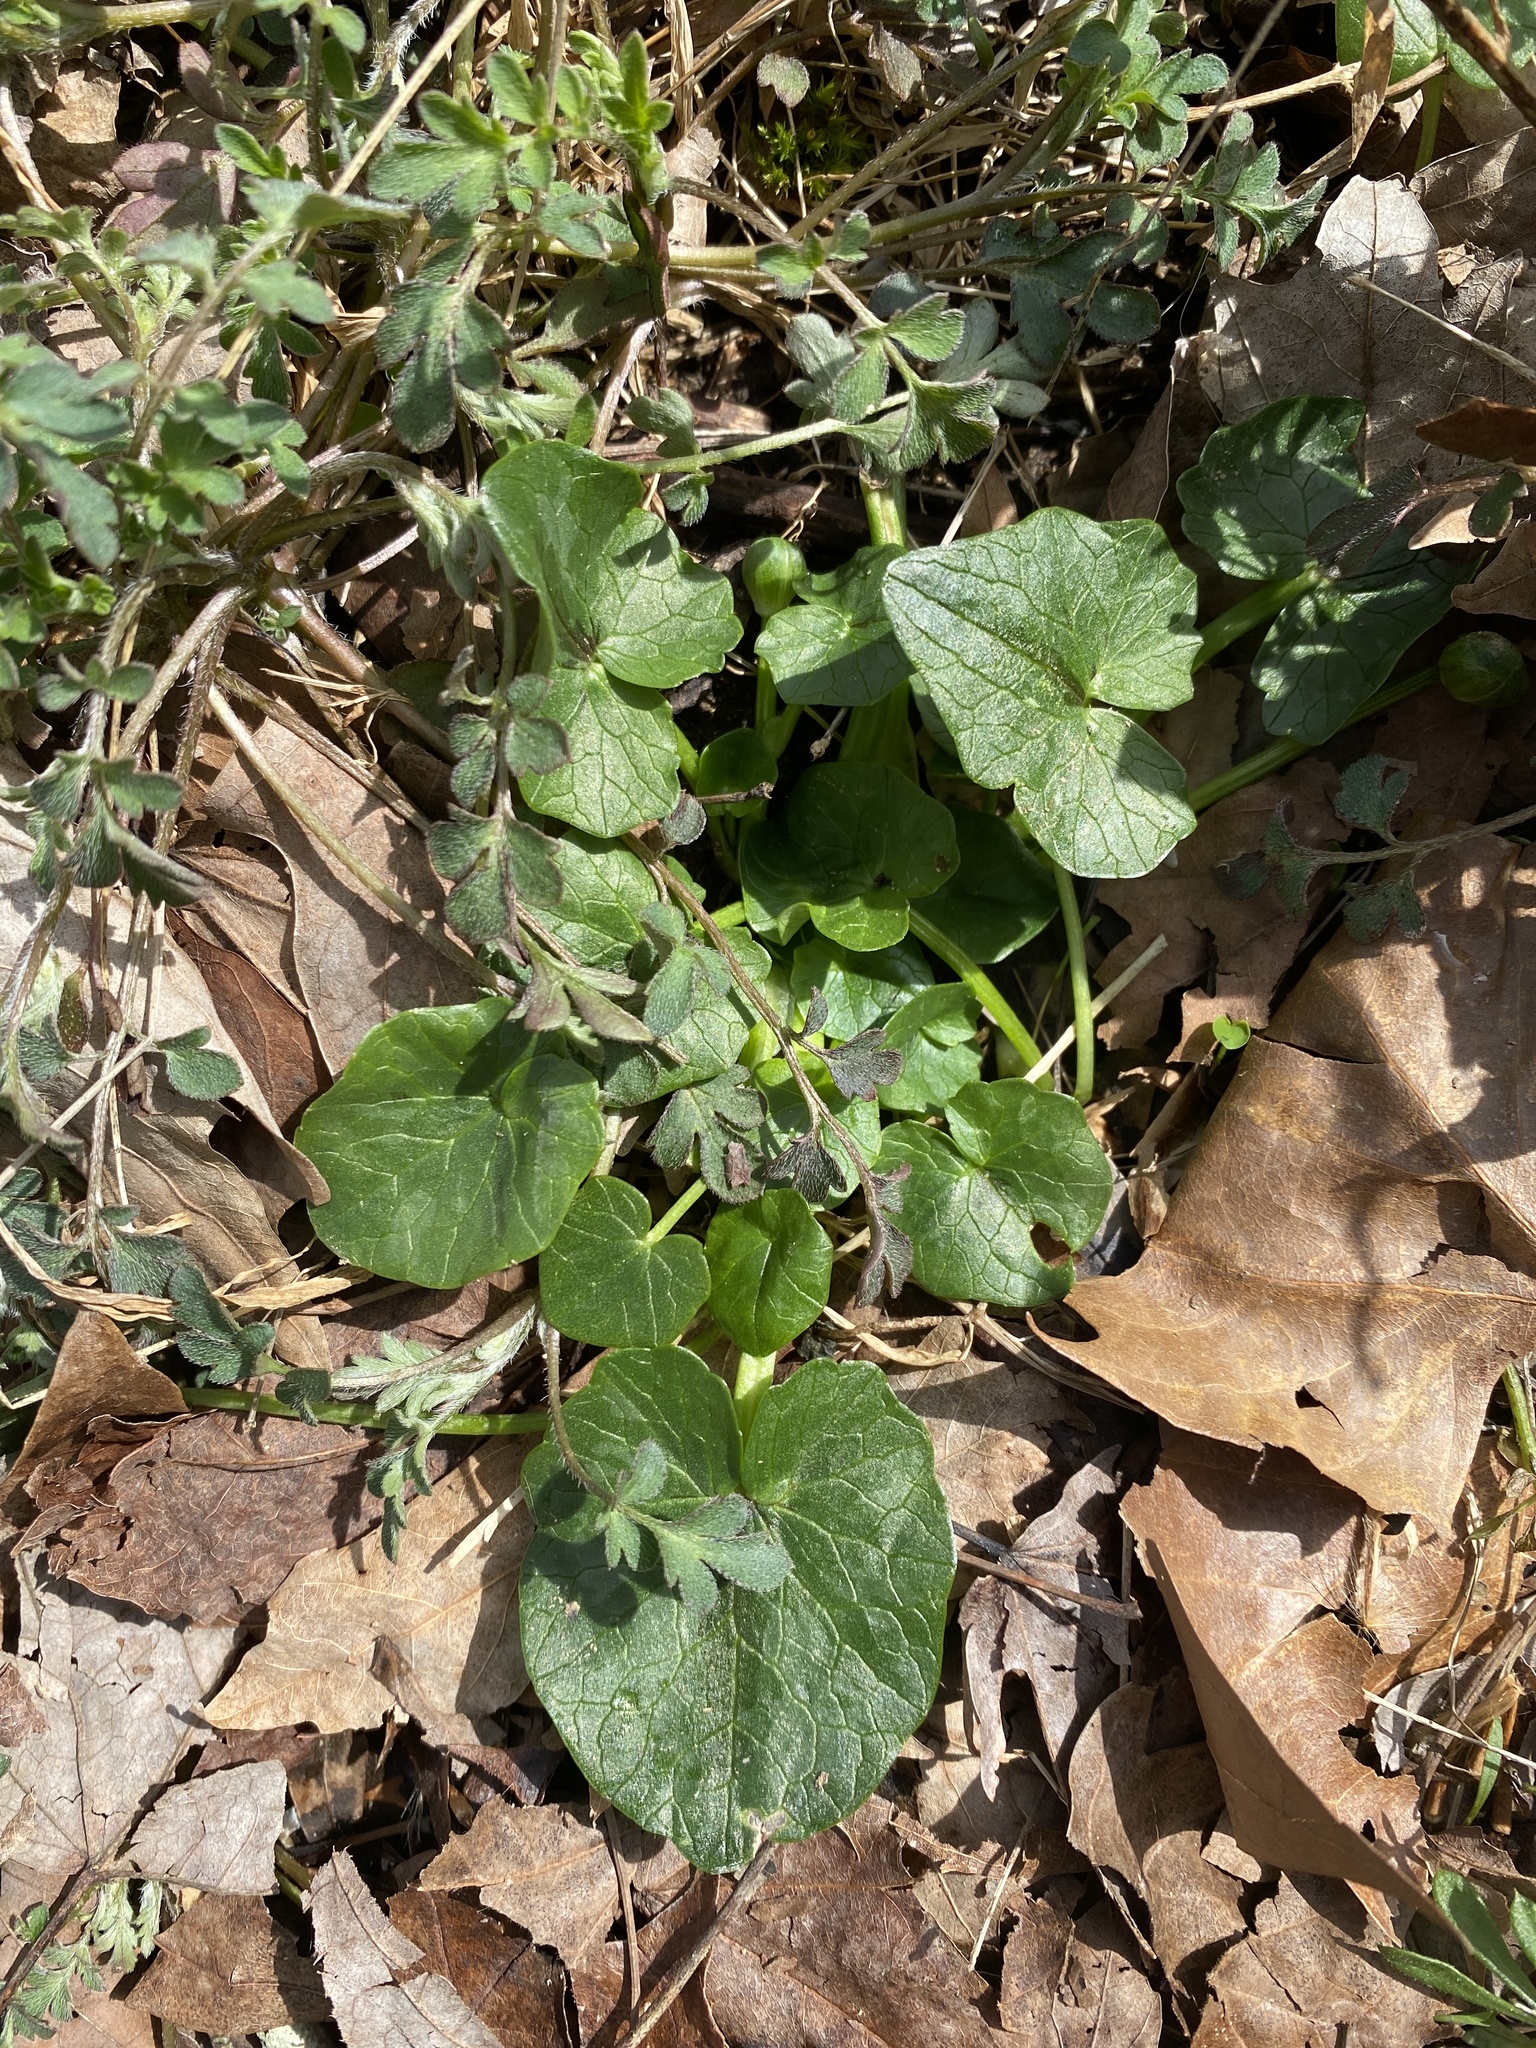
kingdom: Plantae
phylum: Tracheophyta
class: Magnoliopsida
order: Ranunculales
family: Ranunculaceae
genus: Ficaria
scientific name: Ficaria verna
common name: Lesser celandine
